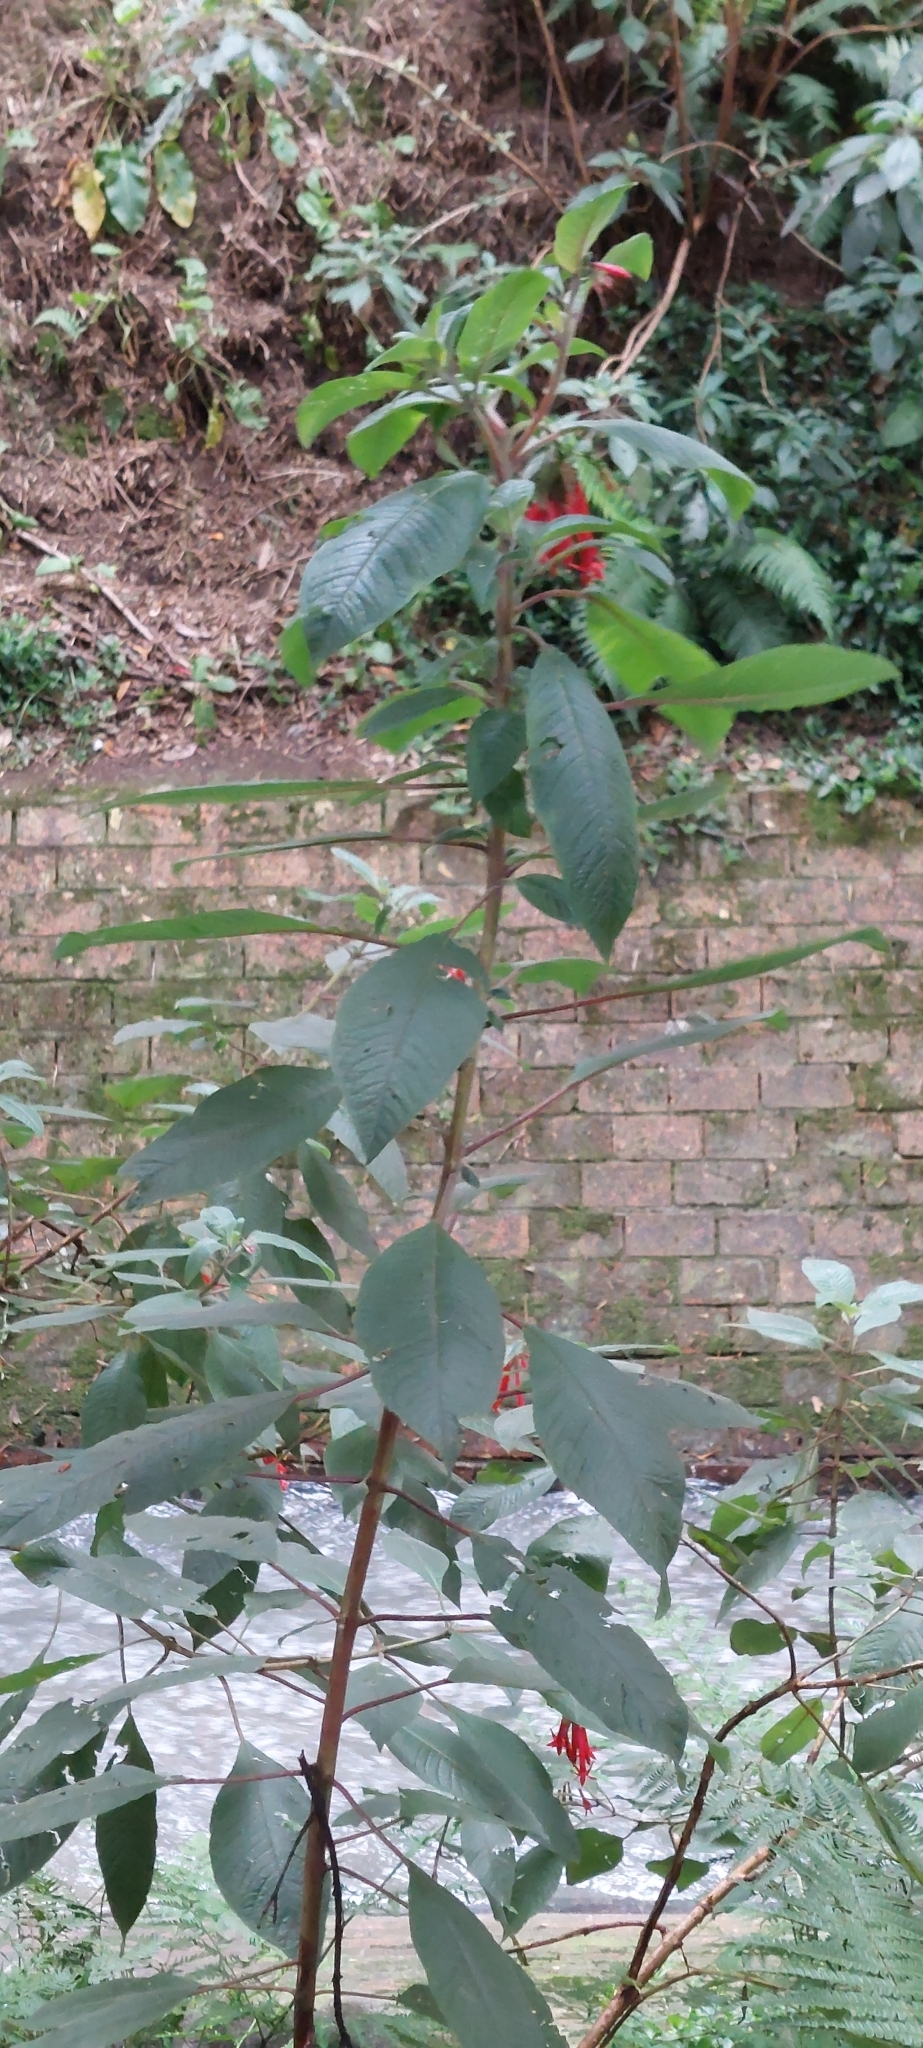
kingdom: Plantae
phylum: Tracheophyta
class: Magnoliopsida
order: Myrtales
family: Onagraceae
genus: Fuchsia
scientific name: Fuchsia boliviana
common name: Bolivian fuchsia
